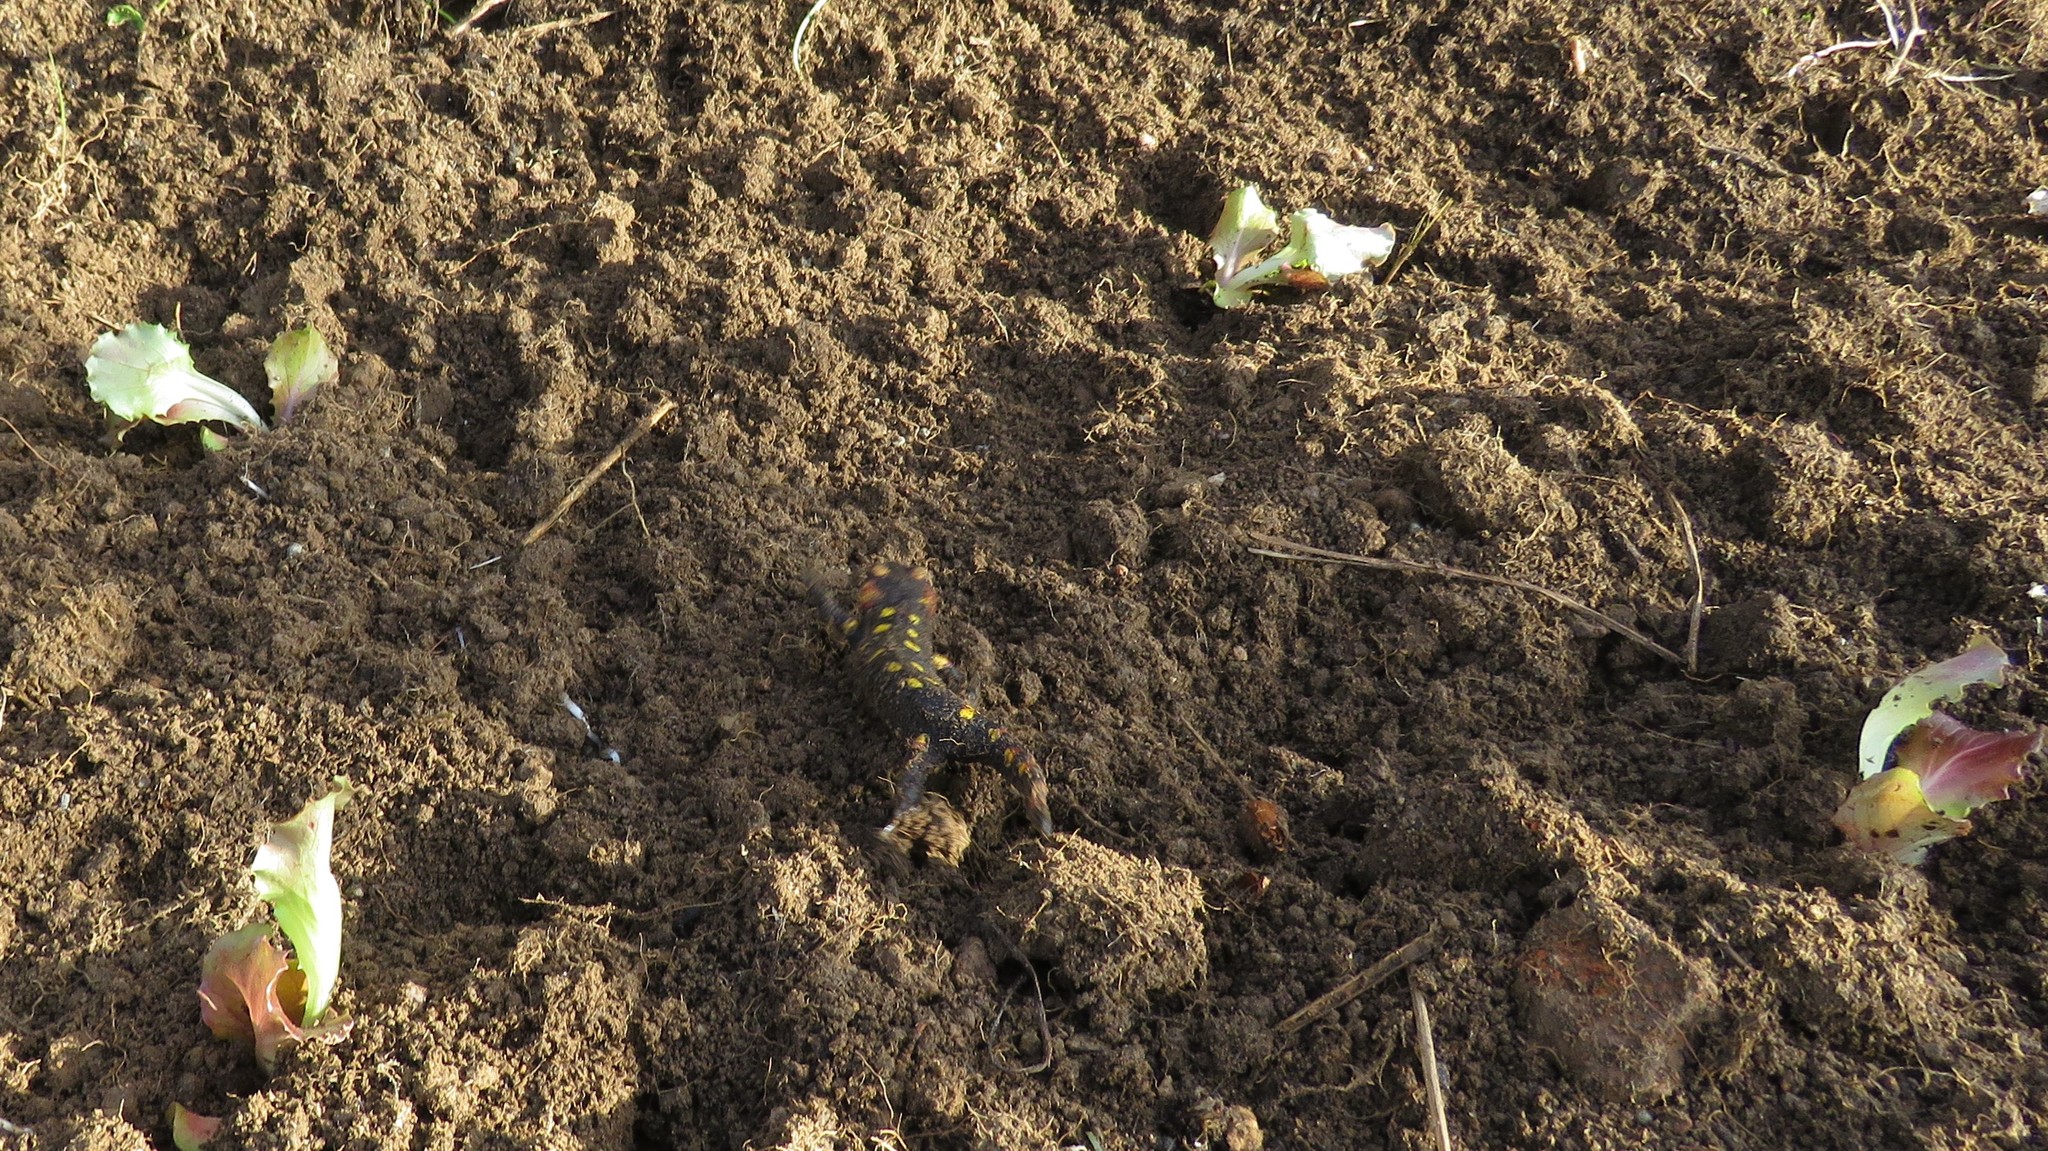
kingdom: Animalia
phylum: Chordata
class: Amphibia
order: Caudata
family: Salamandridae
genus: Salamandra
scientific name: Salamandra salamandra
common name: Fire salamander
